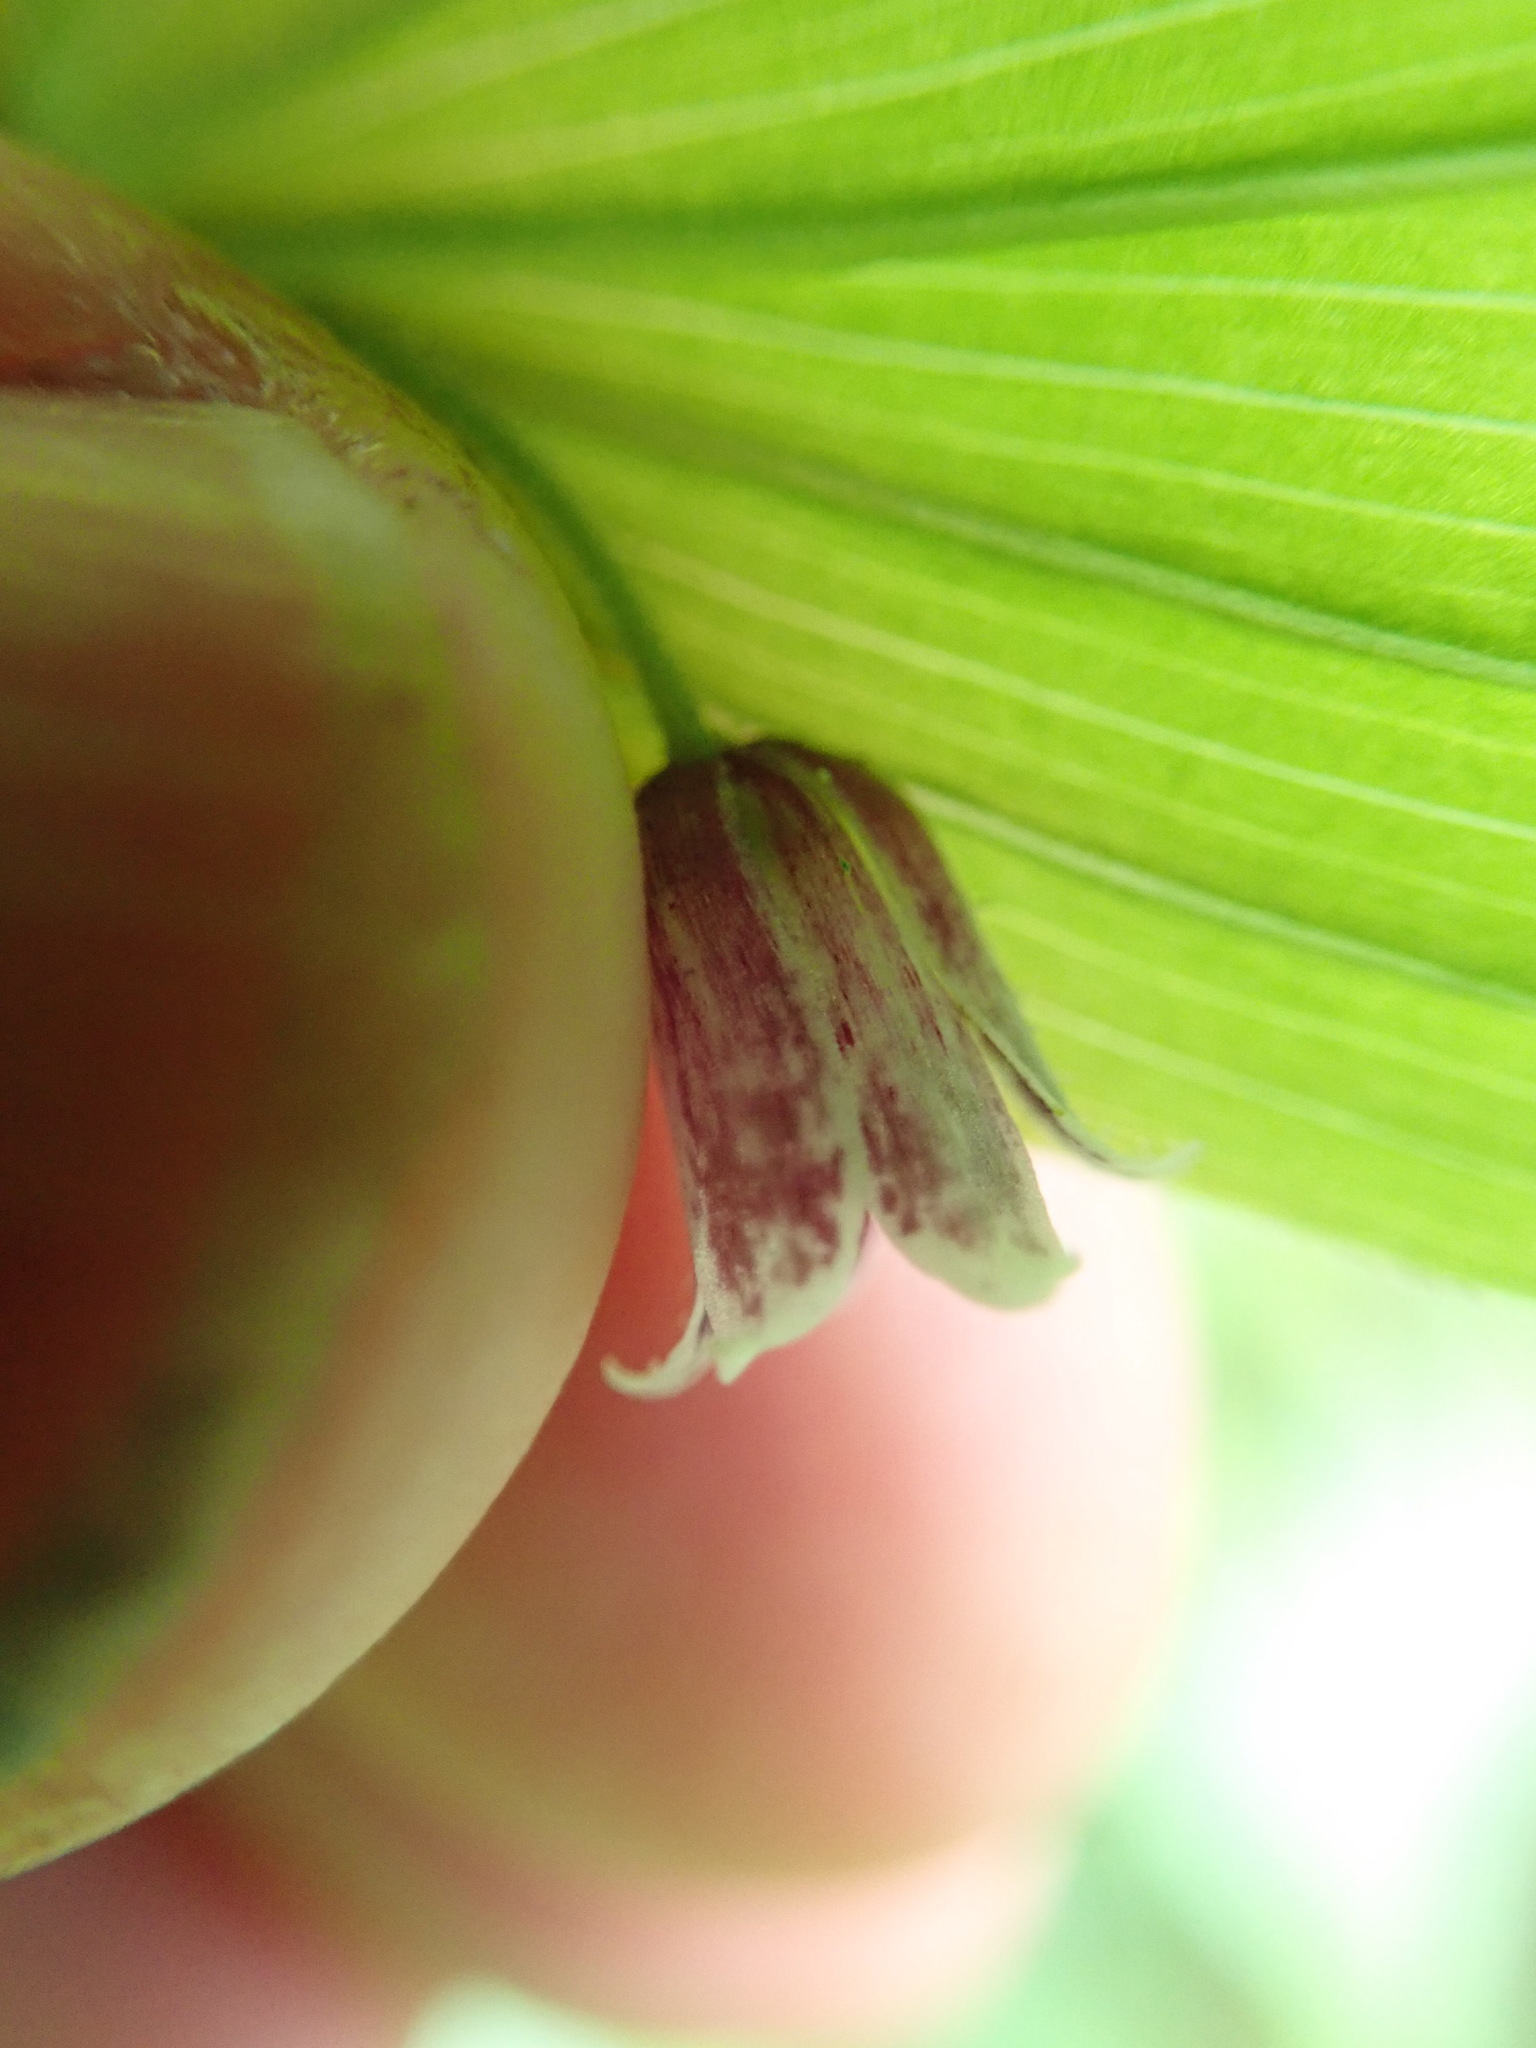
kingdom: Plantae
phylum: Tracheophyta
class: Liliopsida
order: Liliales
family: Liliaceae
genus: Streptopus
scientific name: Streptopus lanceolatus
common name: Rose mandarin
